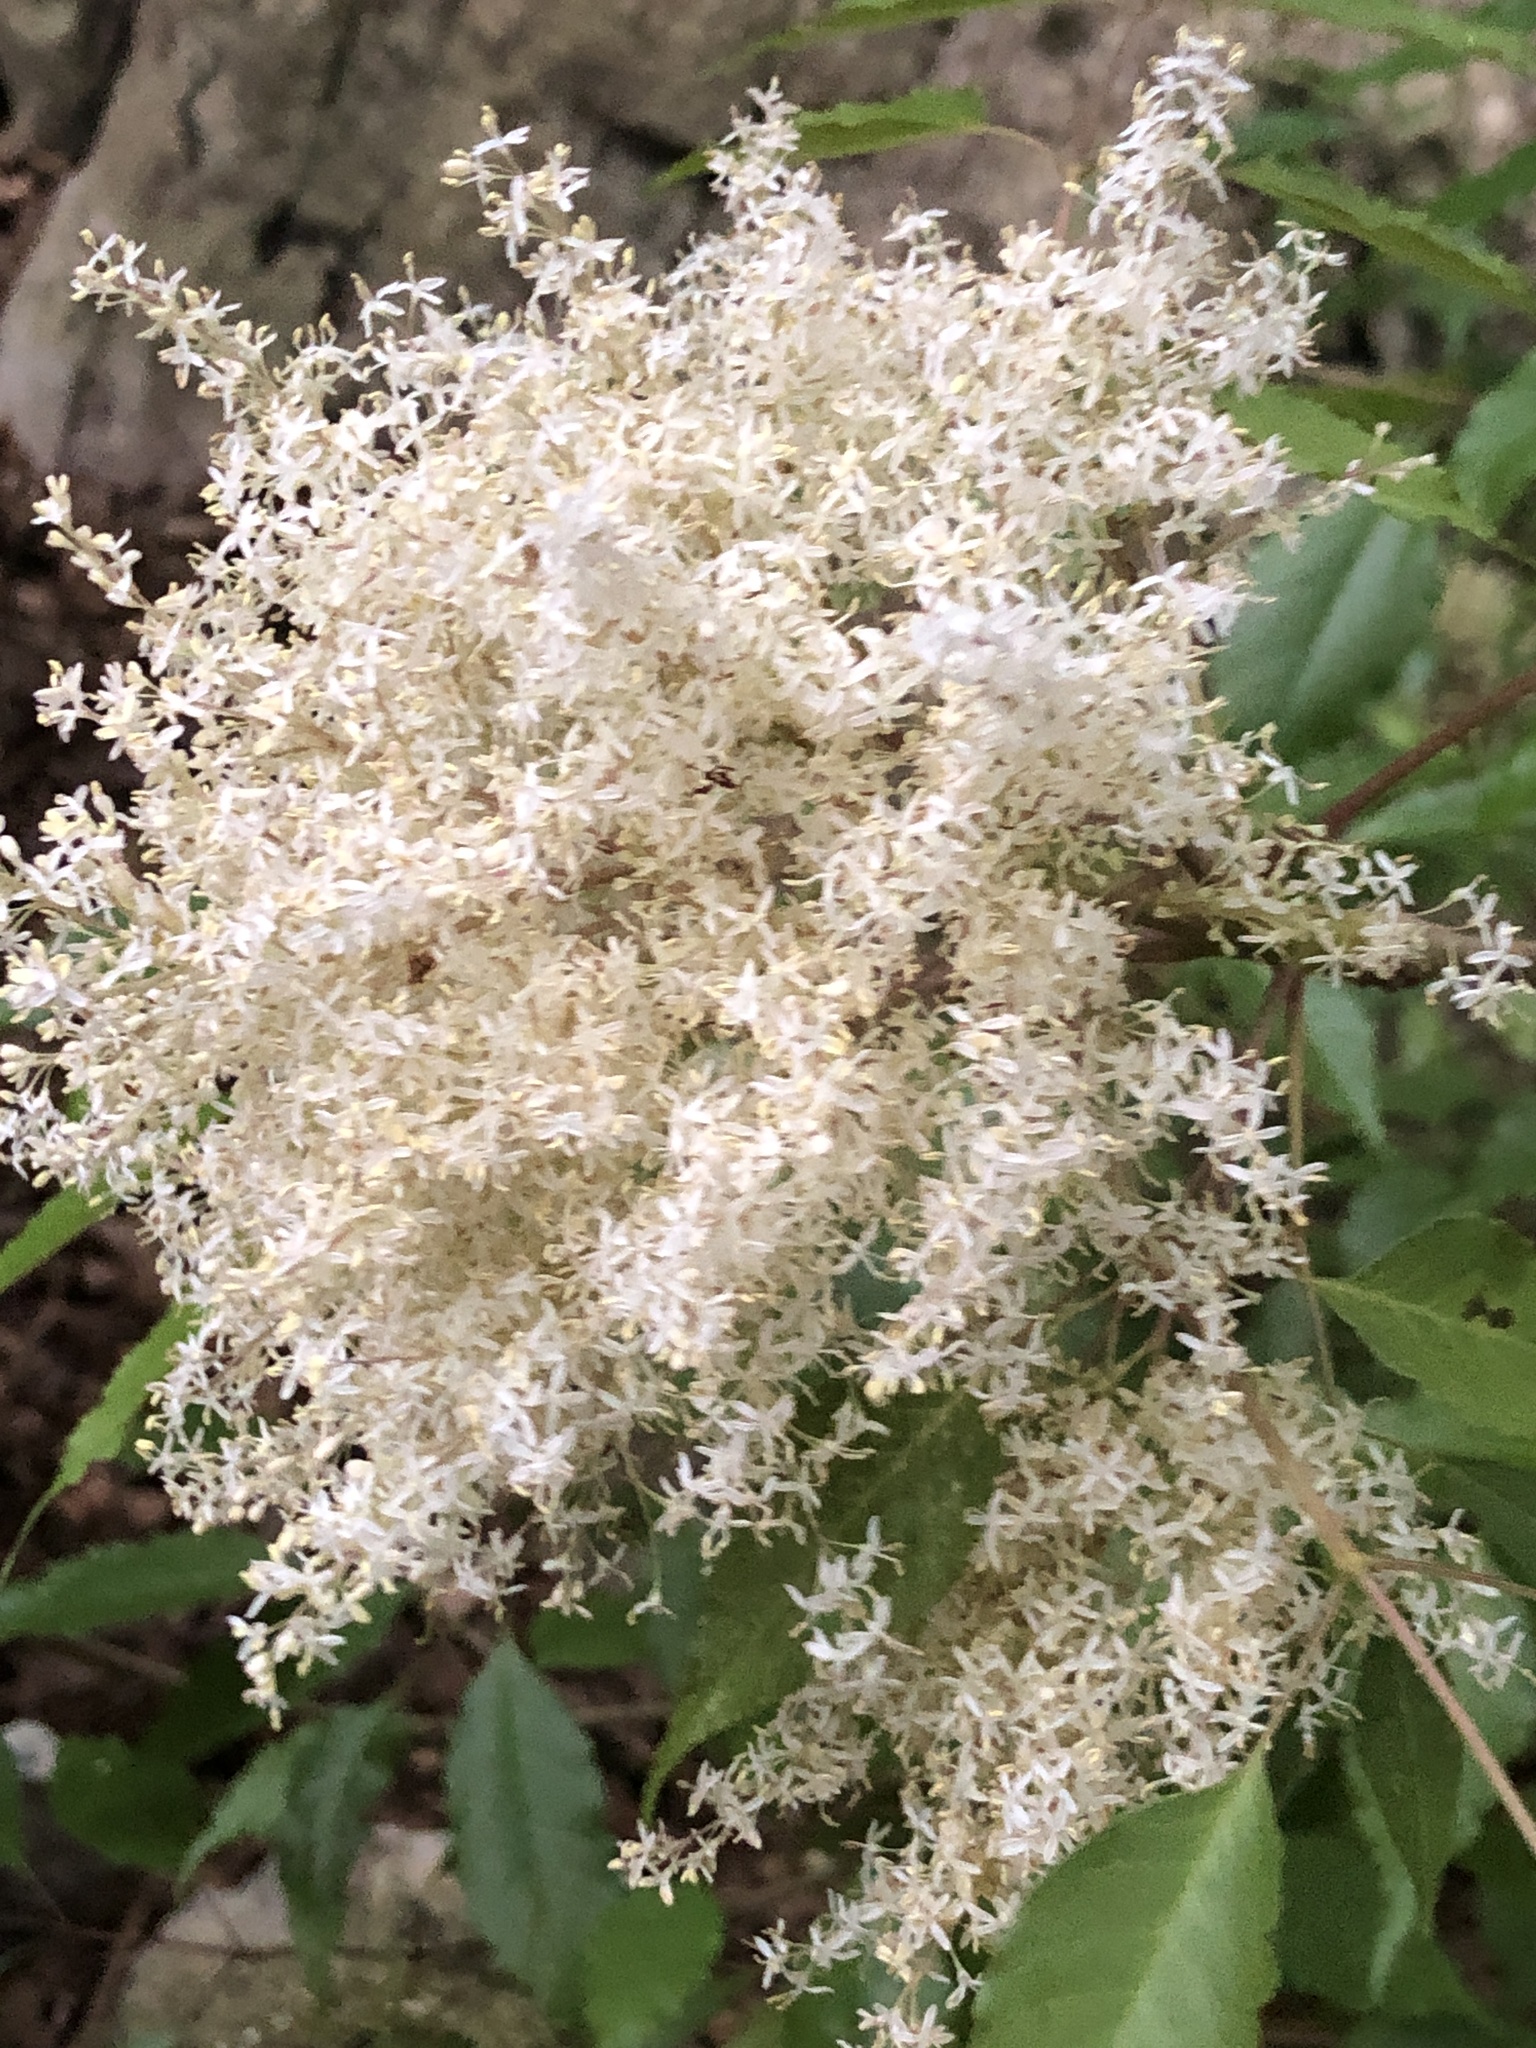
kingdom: Plantae
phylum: Tracheophyta
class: Magnoliopsida
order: Lamiales
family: Oleaceae
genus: Fraxinus
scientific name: Fraxinus insularis
